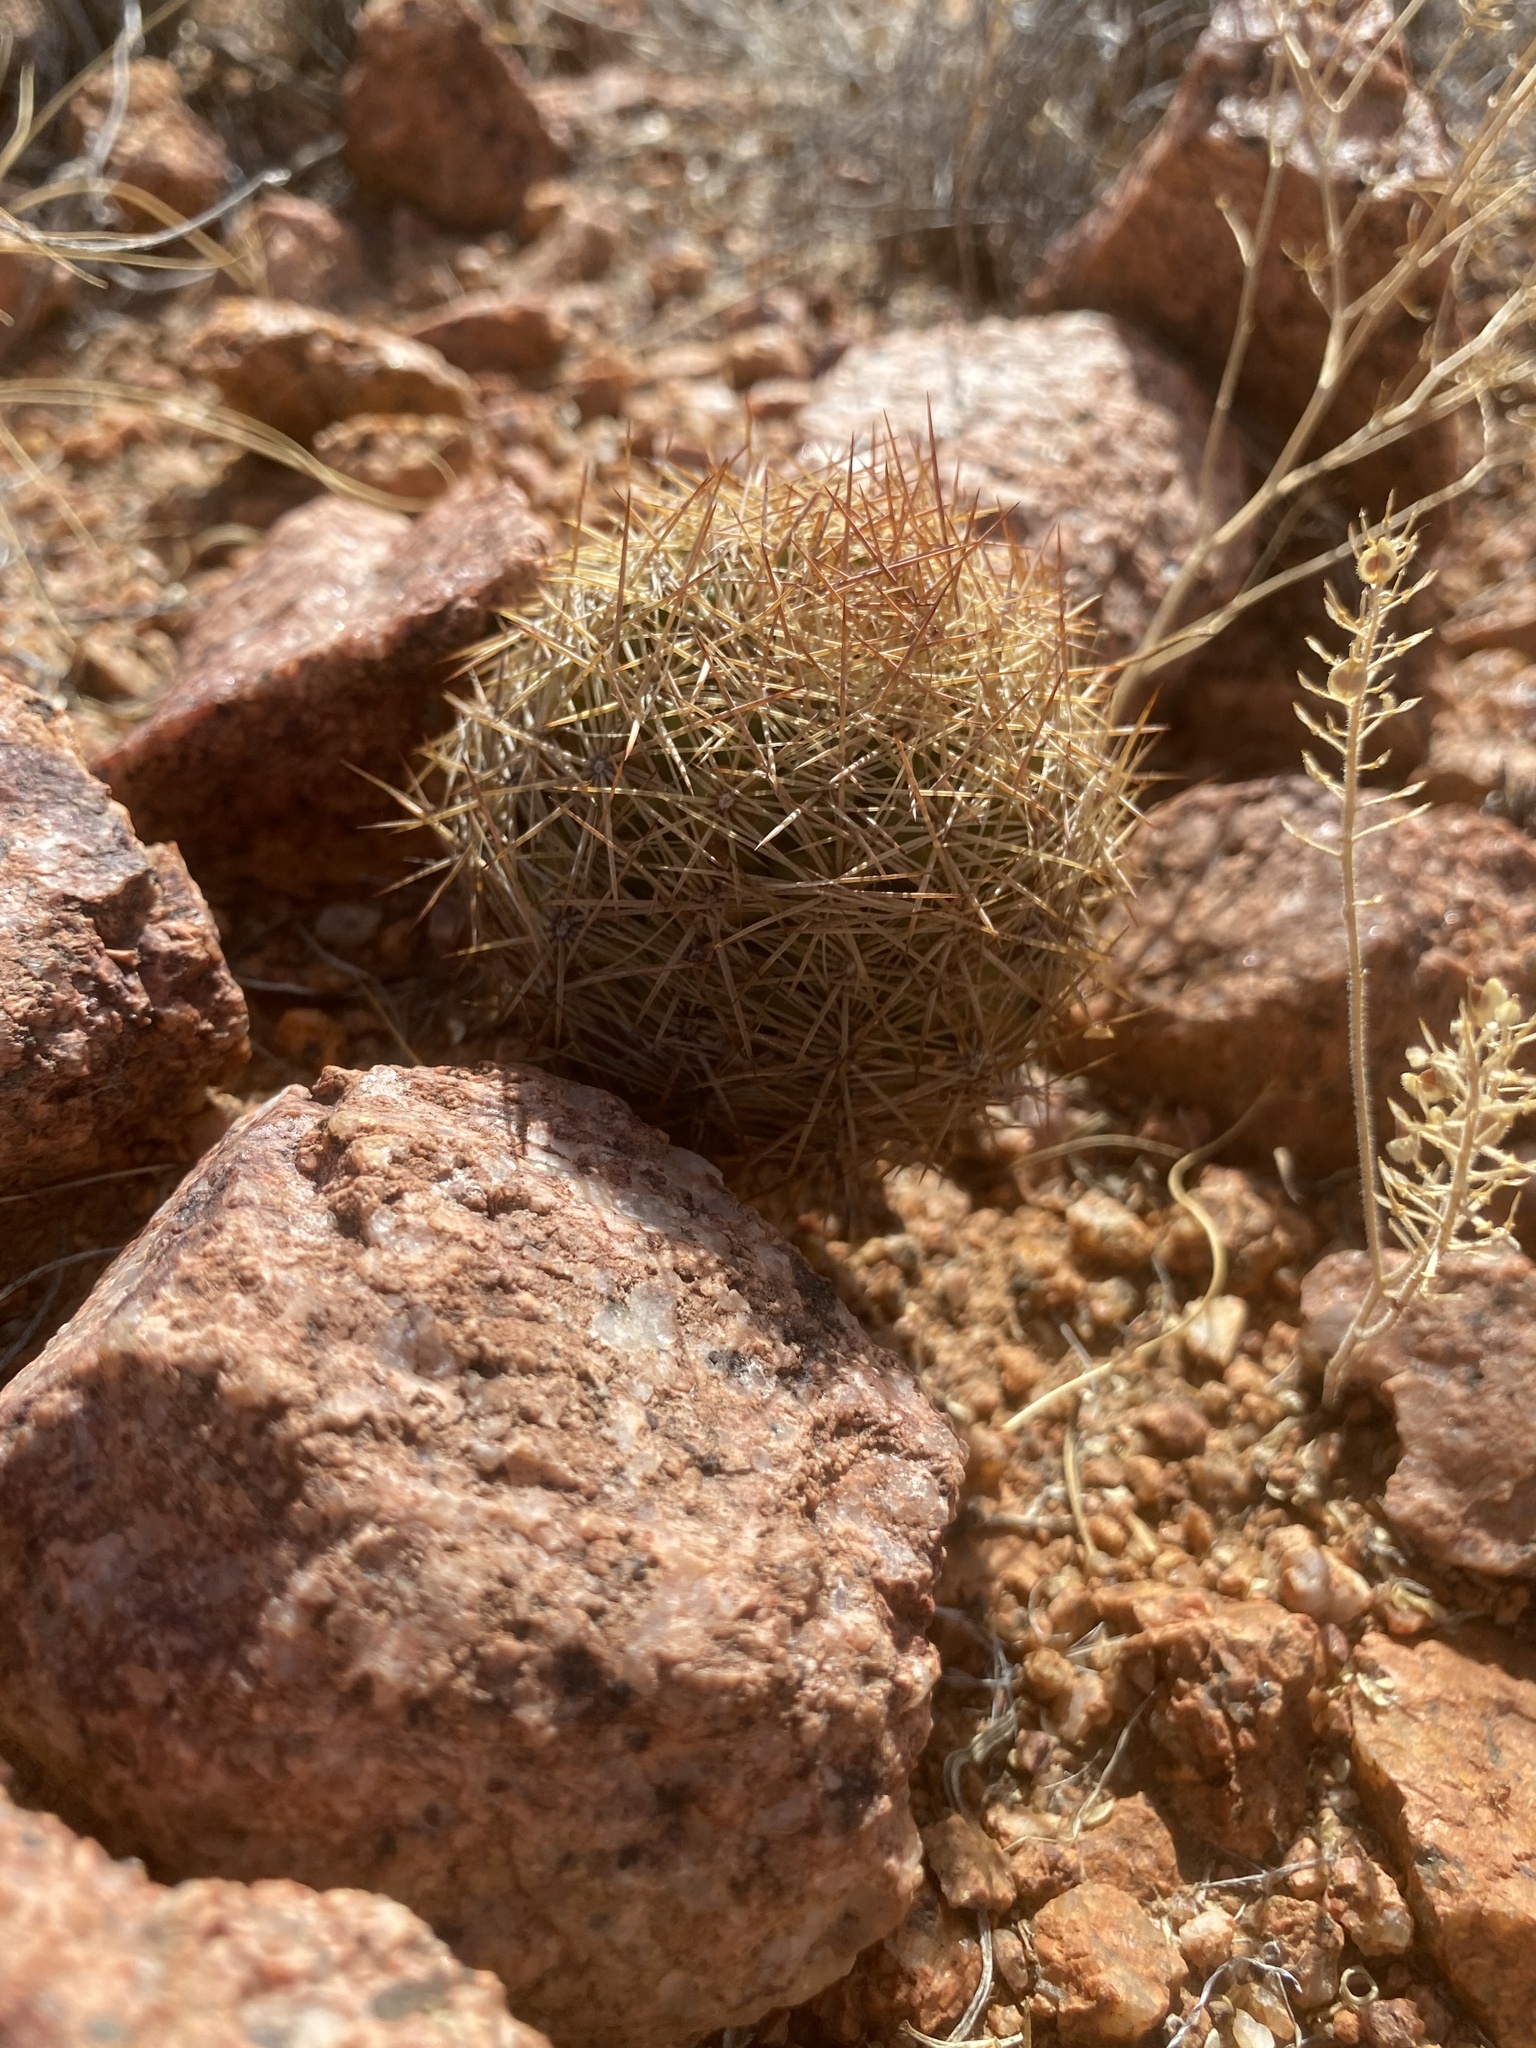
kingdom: Plantae
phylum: Tracheophyta
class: Magnoliopsida
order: Caryophyllales
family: Cactaceae
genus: Sclerocactus
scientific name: Sclerocactus intertextus
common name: White fish-hook cactus
